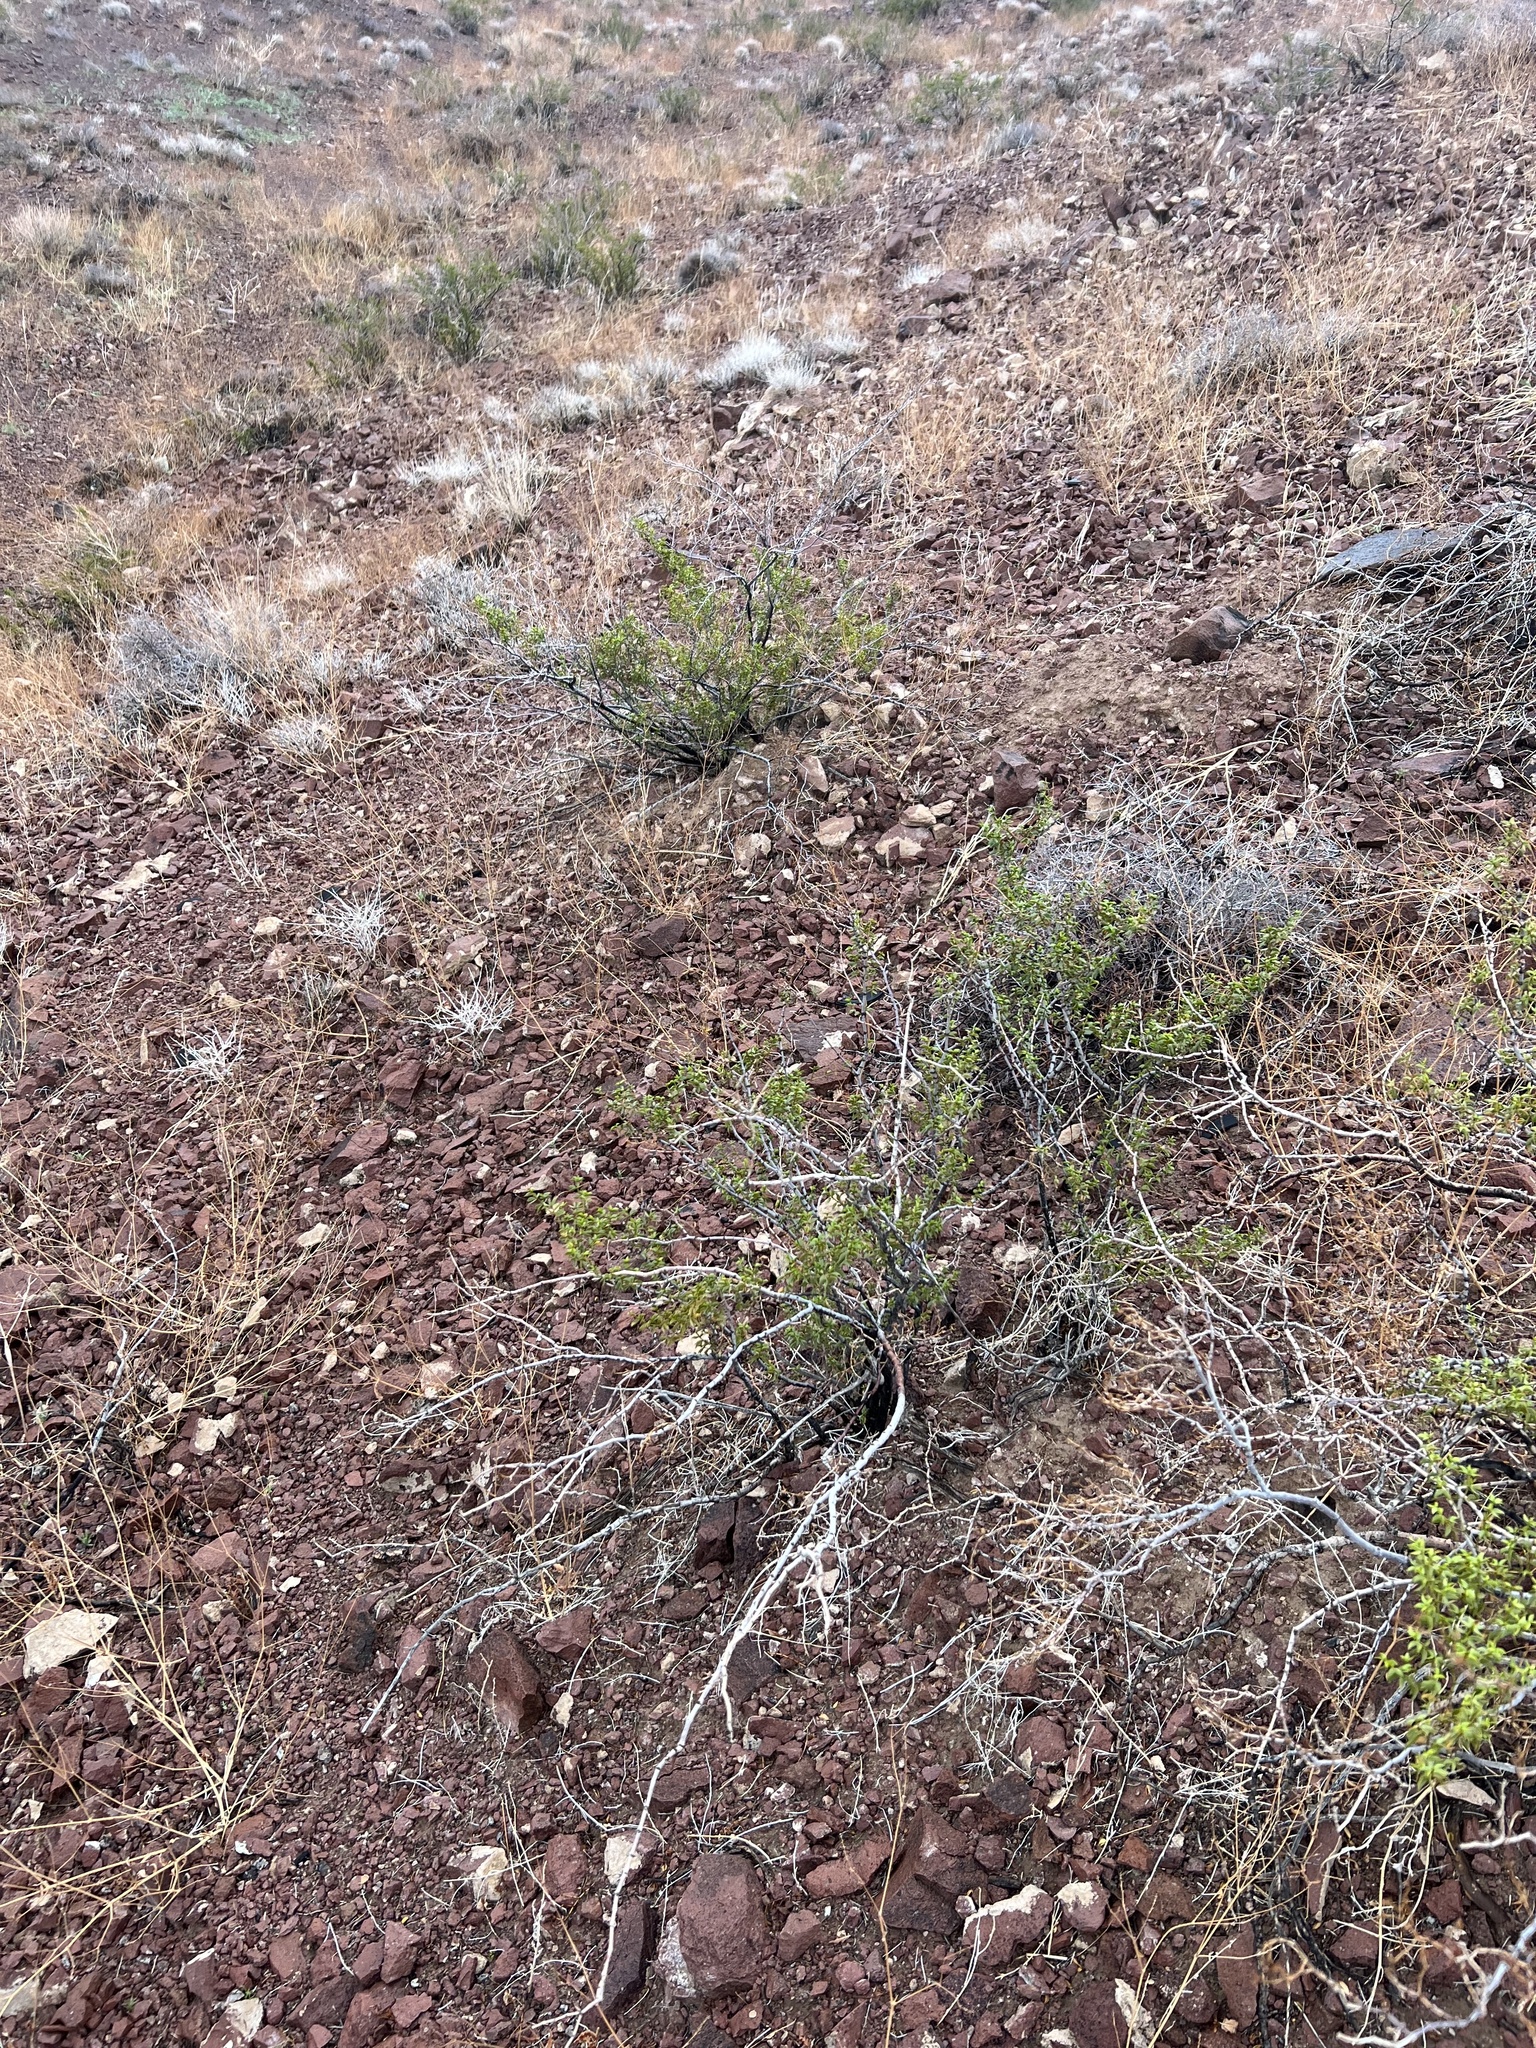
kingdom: Plantae
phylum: Tracheophyta
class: Magnoliopsida
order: Zygophyllales
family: Zygophyllaceae
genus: Larrea
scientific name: Larrea tridentata
